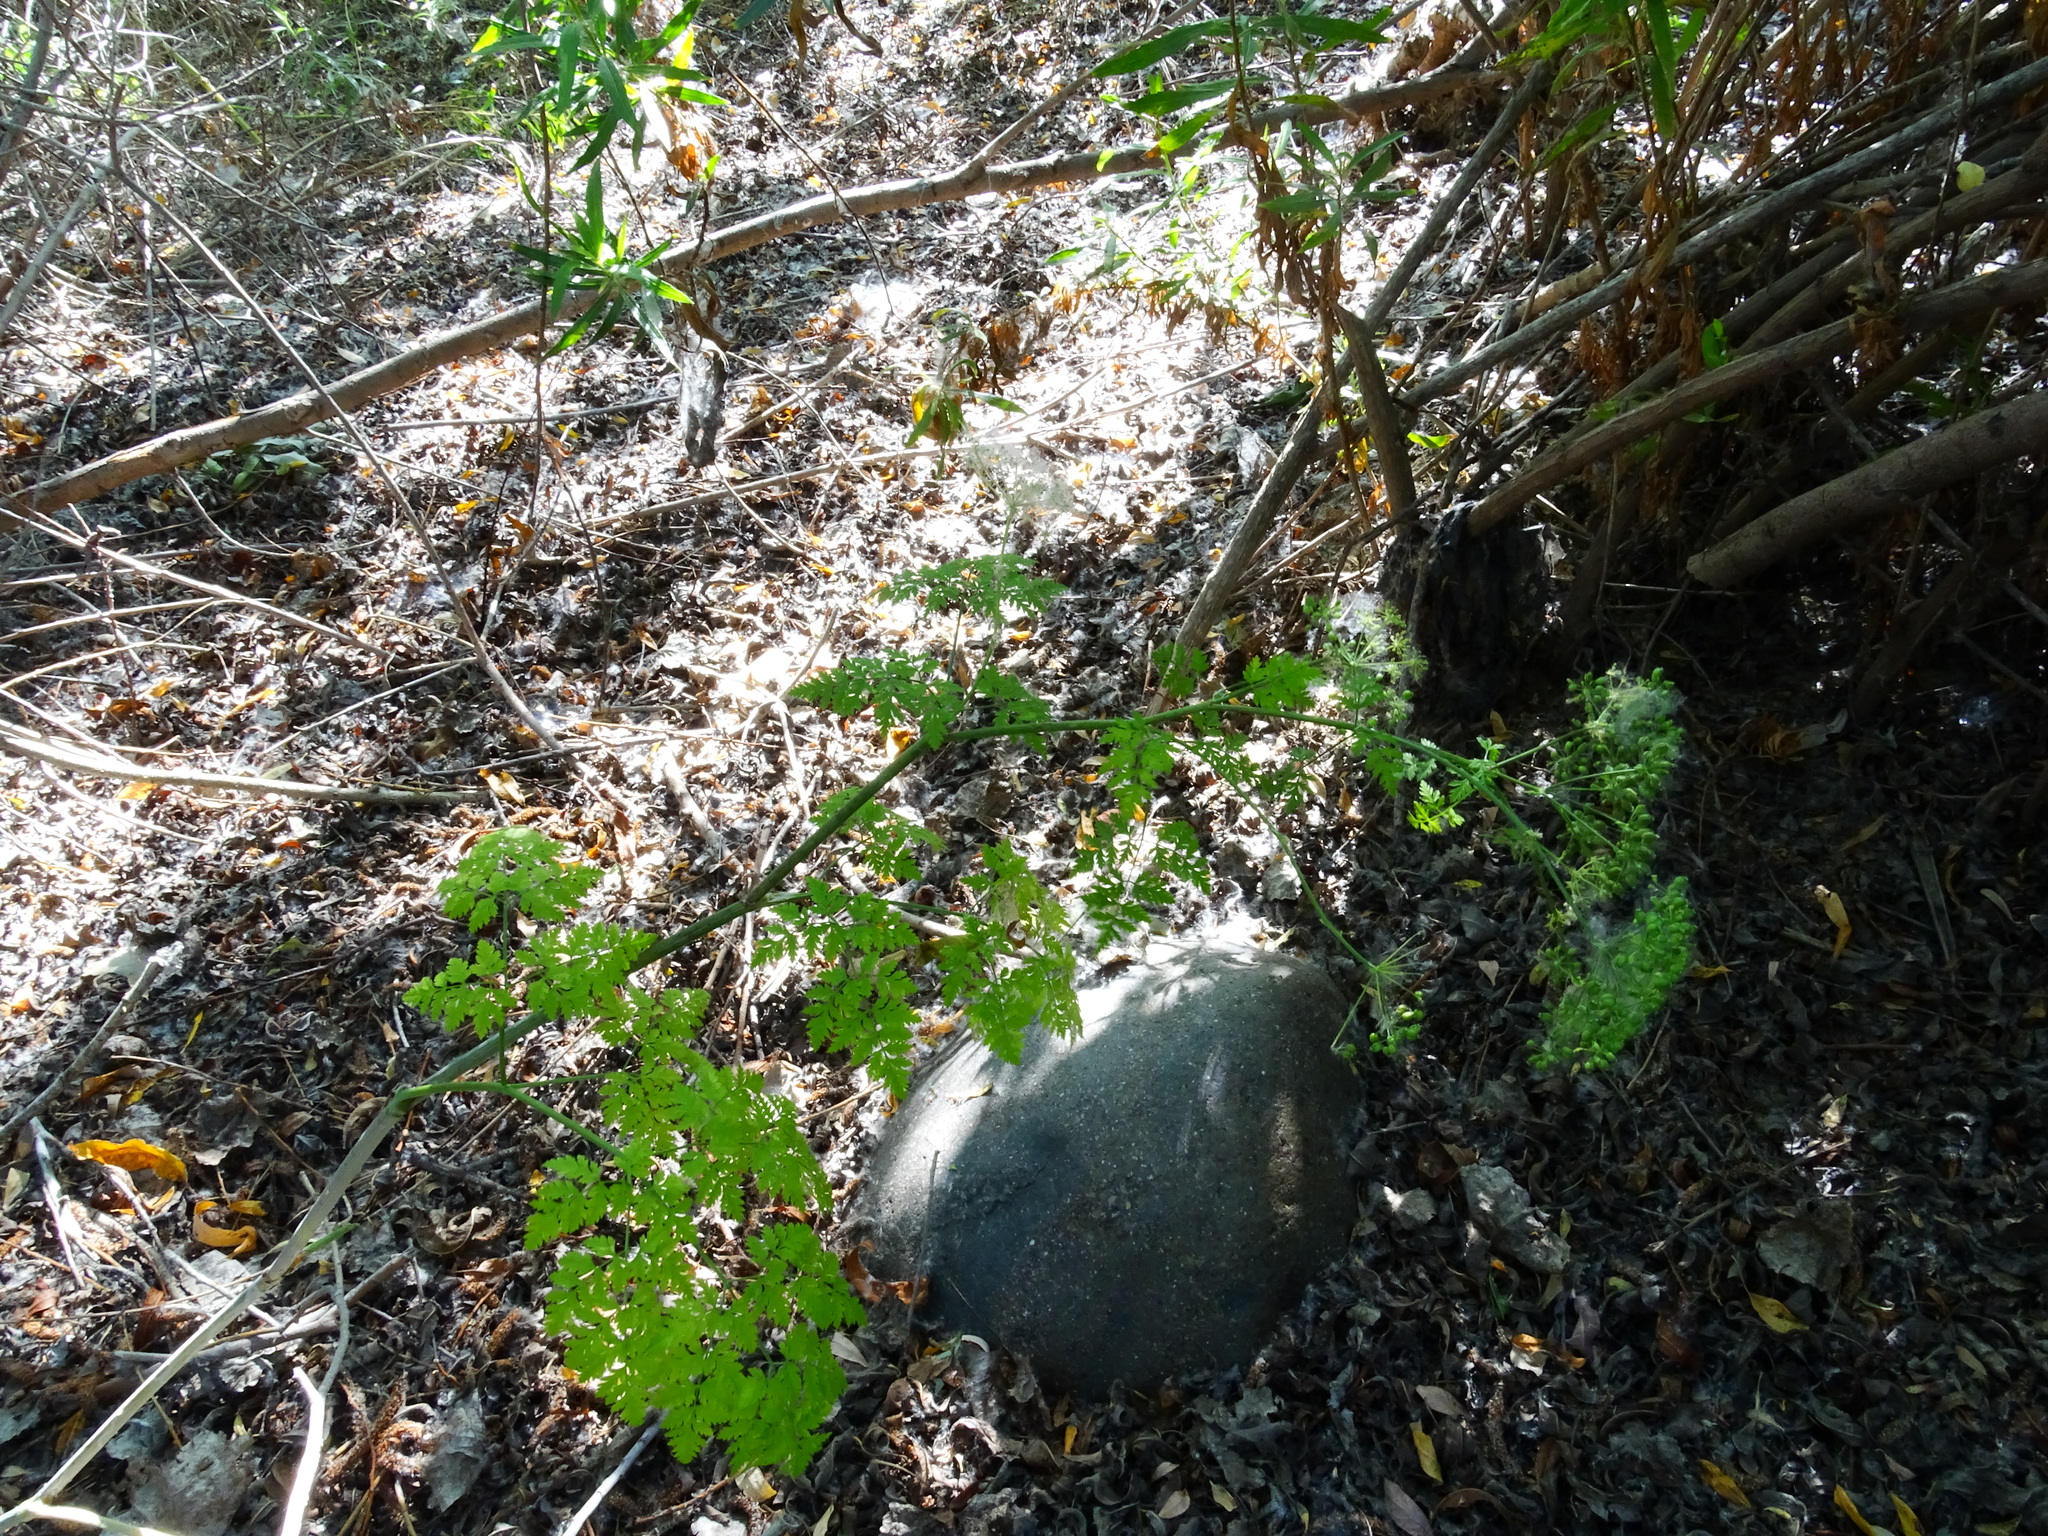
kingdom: Plantae
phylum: Tracheophyta
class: Magnoliopsida
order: Apiales
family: Apiaceae
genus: Conium
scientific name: Conium maculatum
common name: Hemlock
